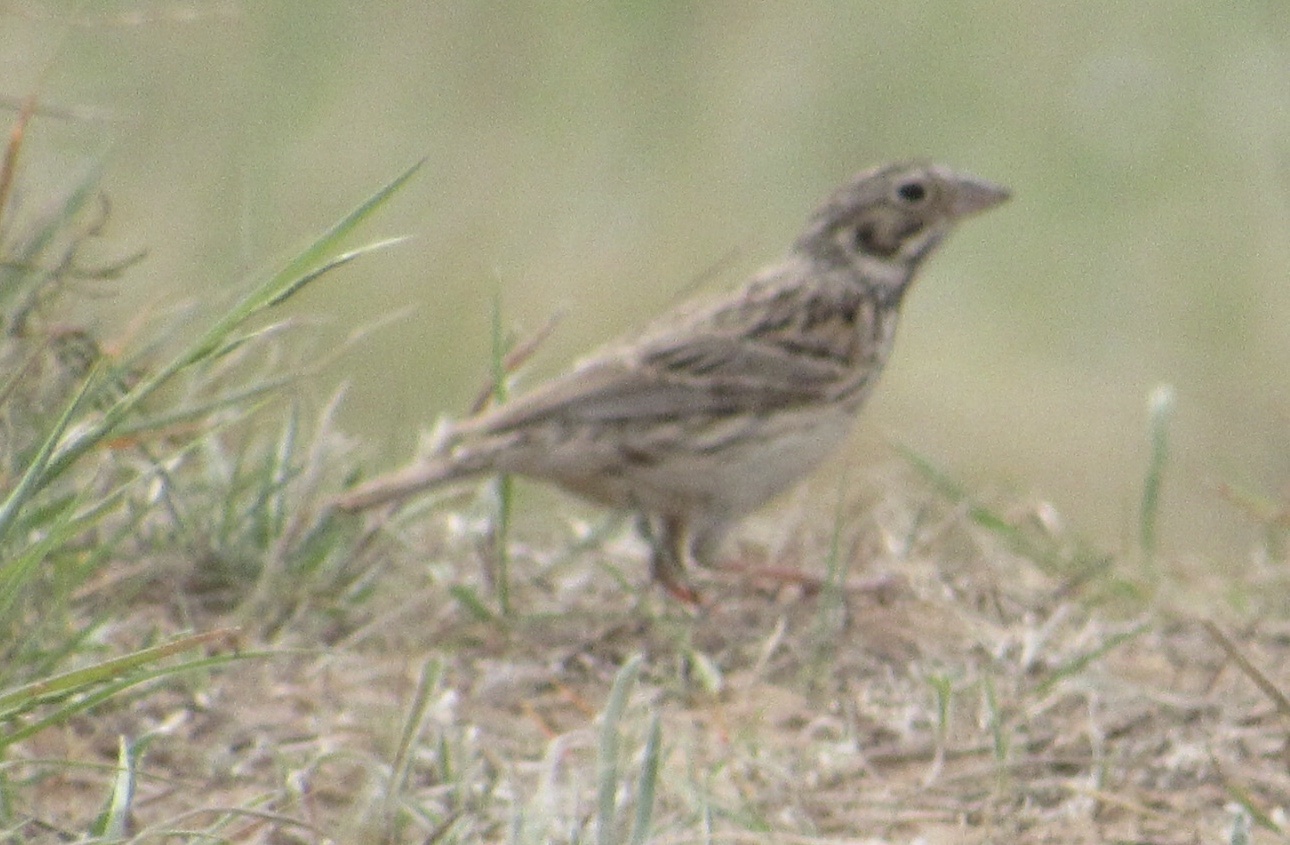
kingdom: Animalia
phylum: Chordata
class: Aves
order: Passeriformes
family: Passerellidae
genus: Pooecetes
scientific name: Pooecetes gramineus
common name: Vesper sparrow
